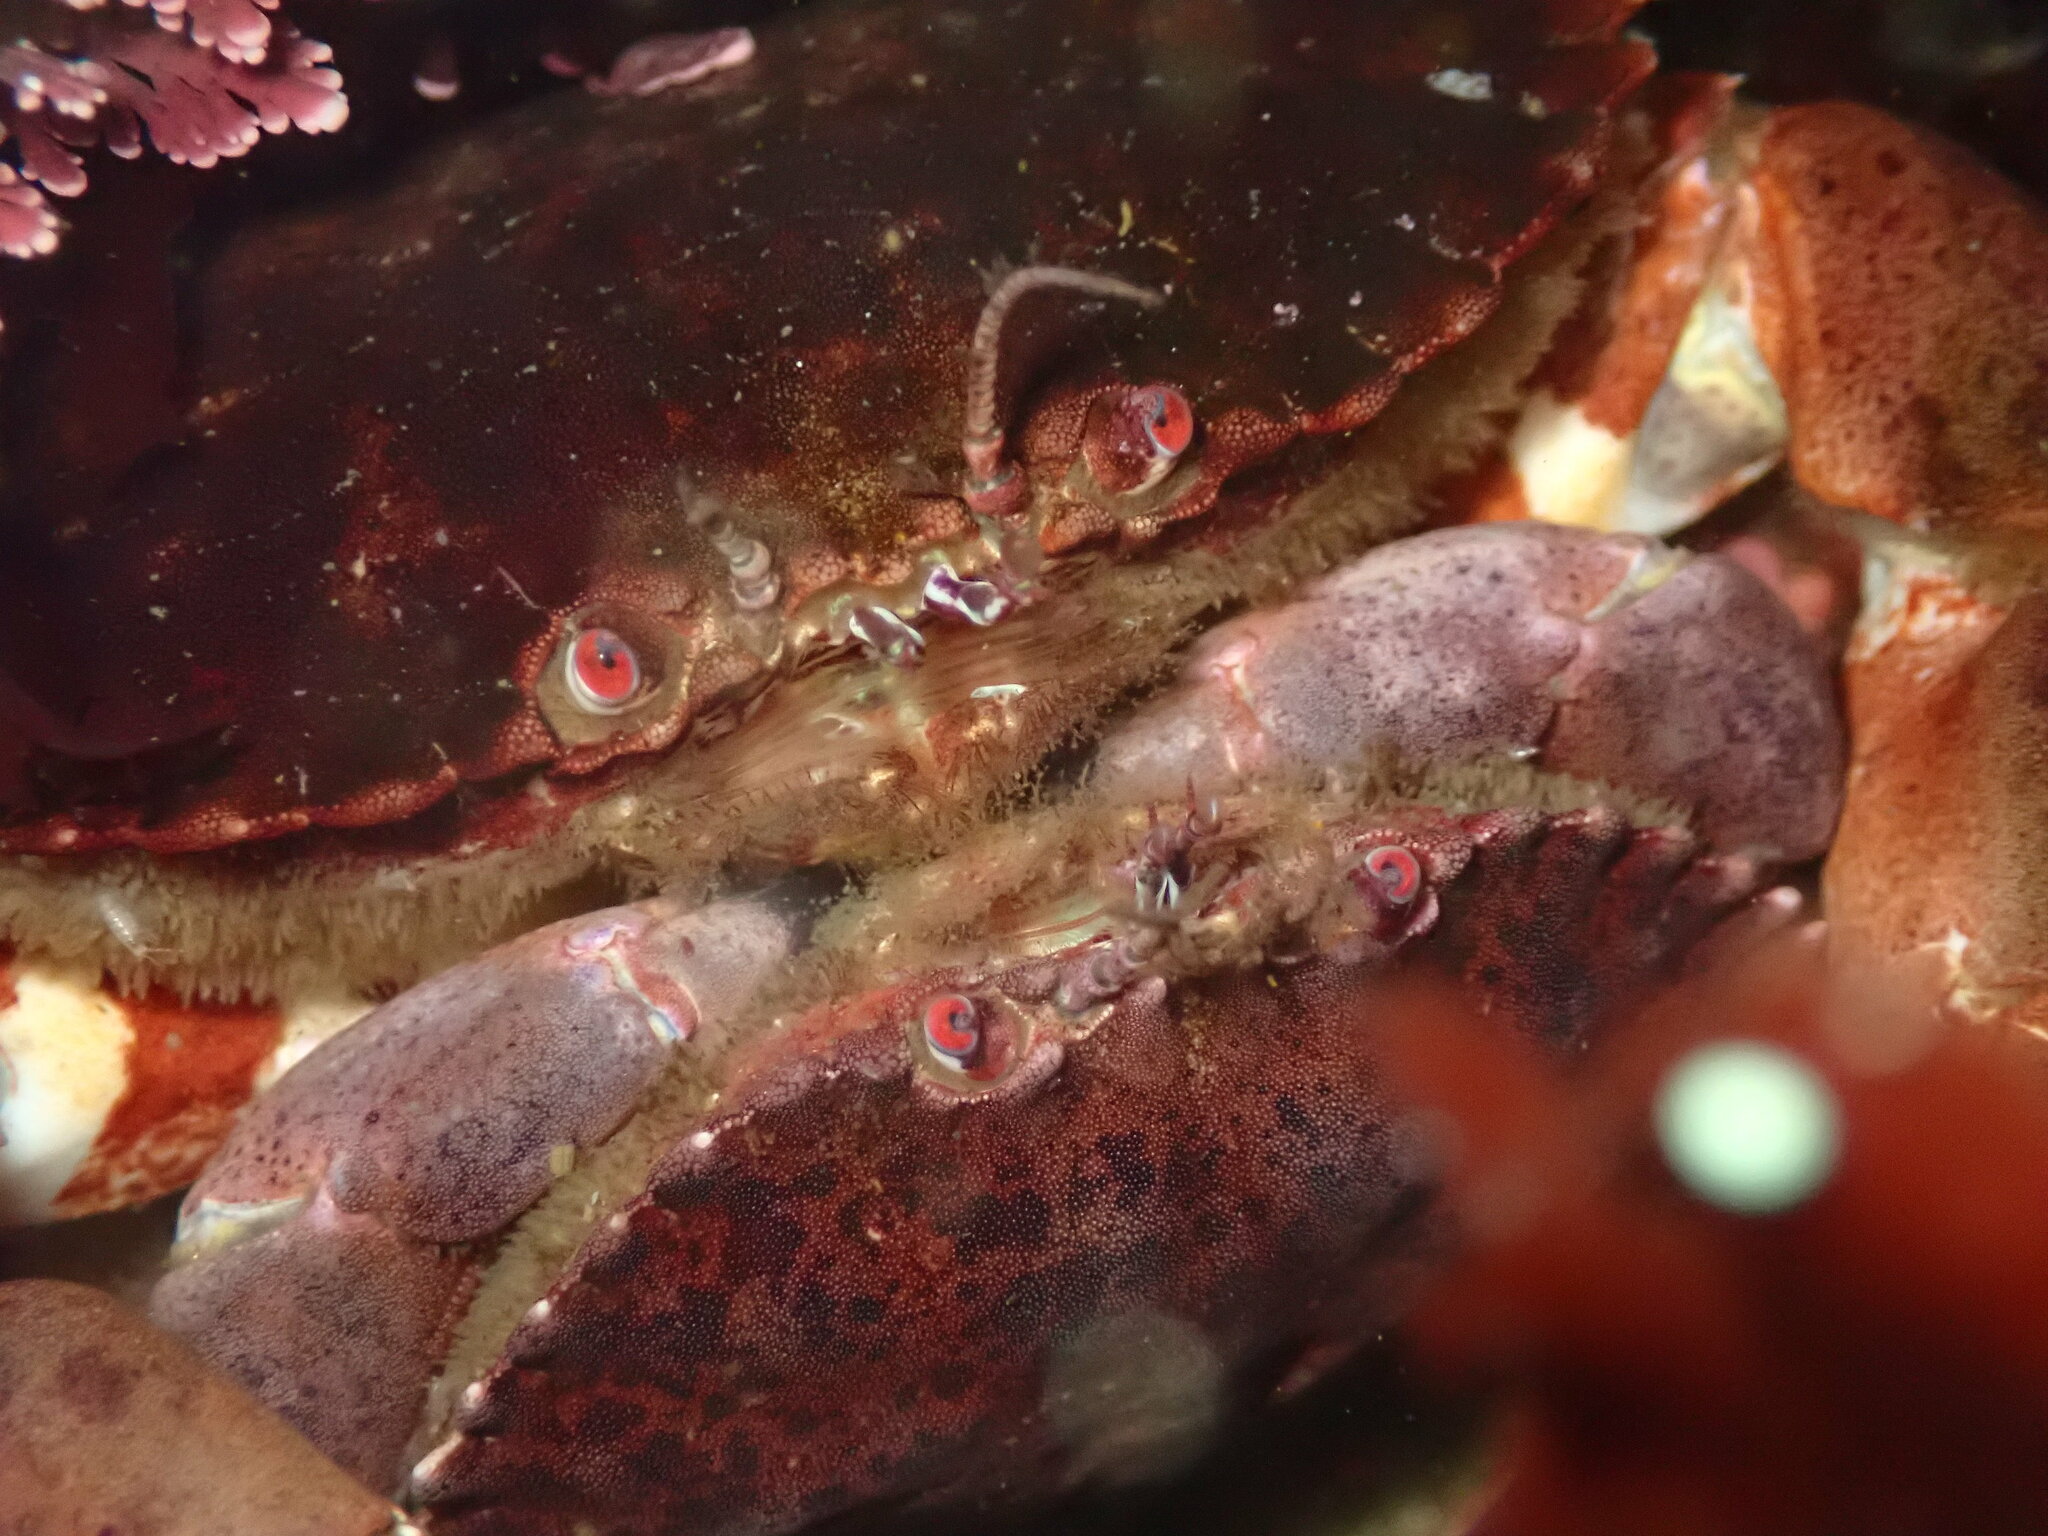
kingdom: Animalia
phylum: Arthropoda
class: Malacostraca
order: Decapoda
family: Cancridae
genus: Romaleon
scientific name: Romaleon antennarium
